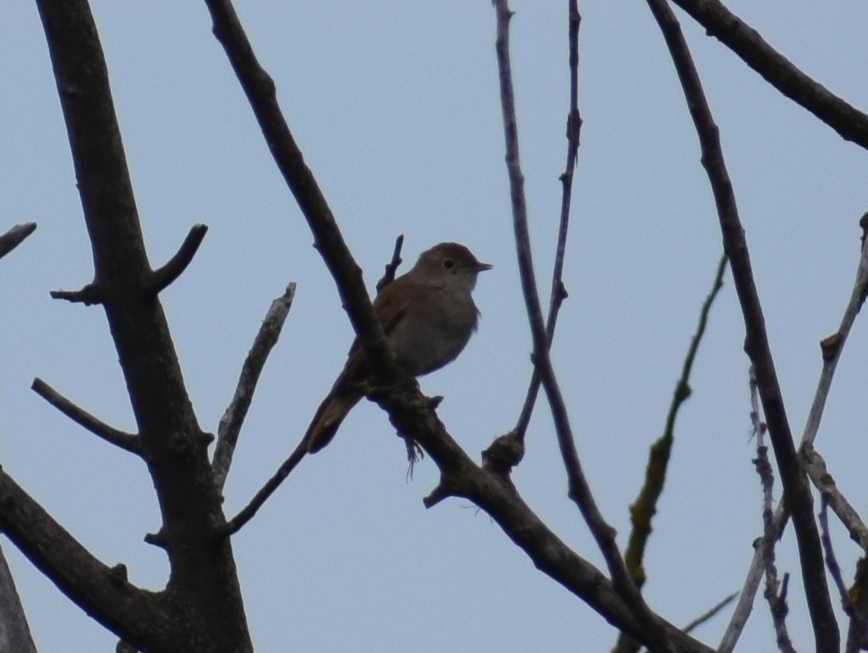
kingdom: Animalia
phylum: Chordata
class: Aves
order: Passeriformes
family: Muscicapidae
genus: Luscinia
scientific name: Luscinia megarhynchos
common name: Common nightingale
